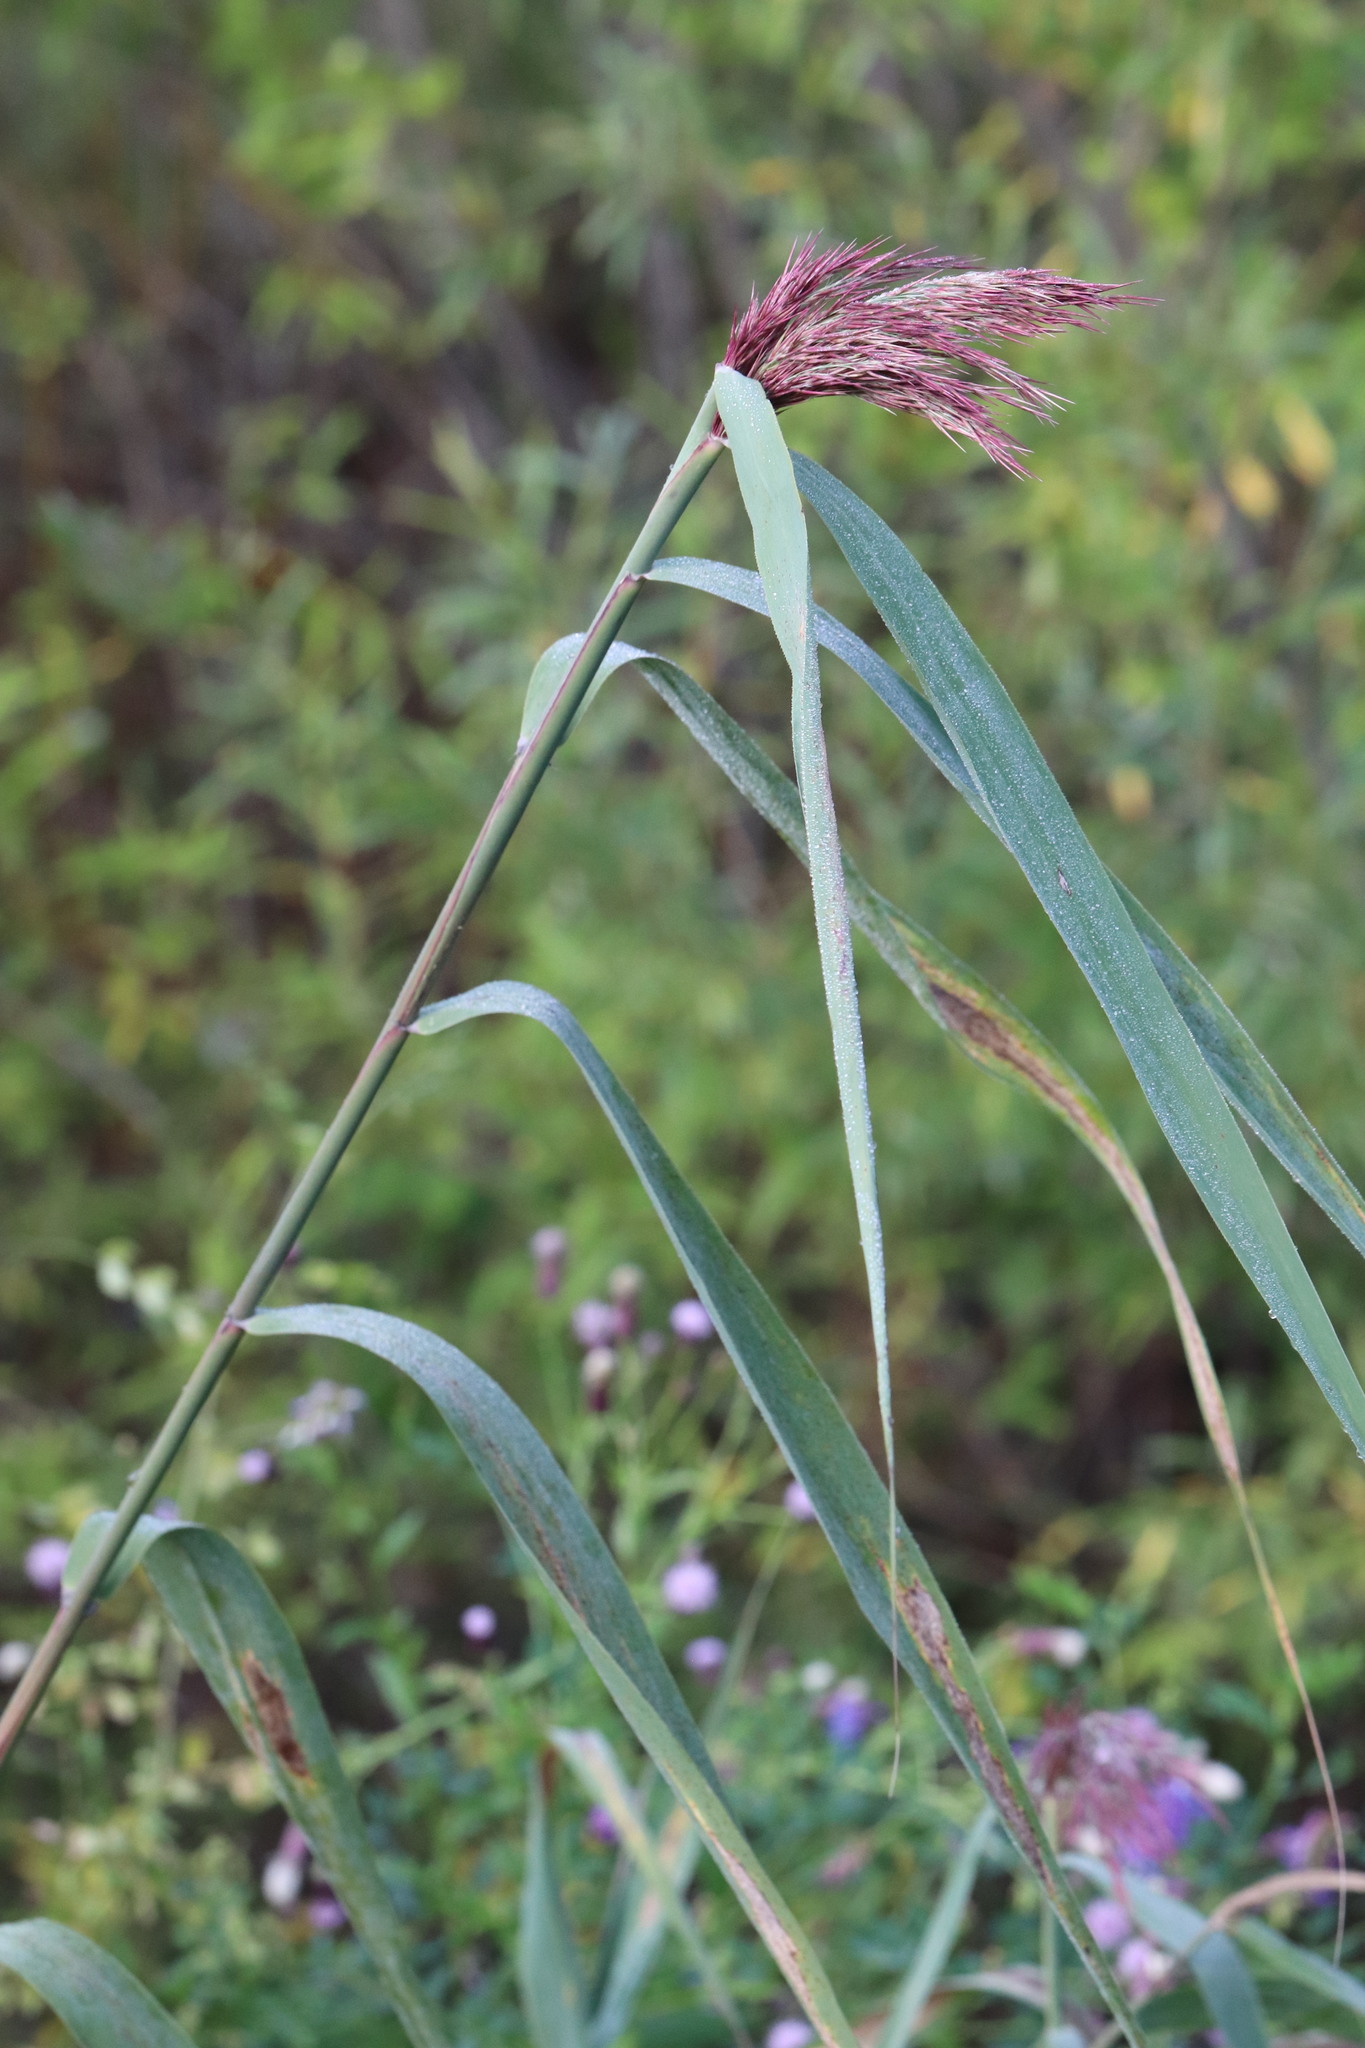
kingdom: Plantae
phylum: Tracheophyta
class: Liliopsida
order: Poales
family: Poaceae
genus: Phragmites
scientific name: Phragmites australis
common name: Common reed
